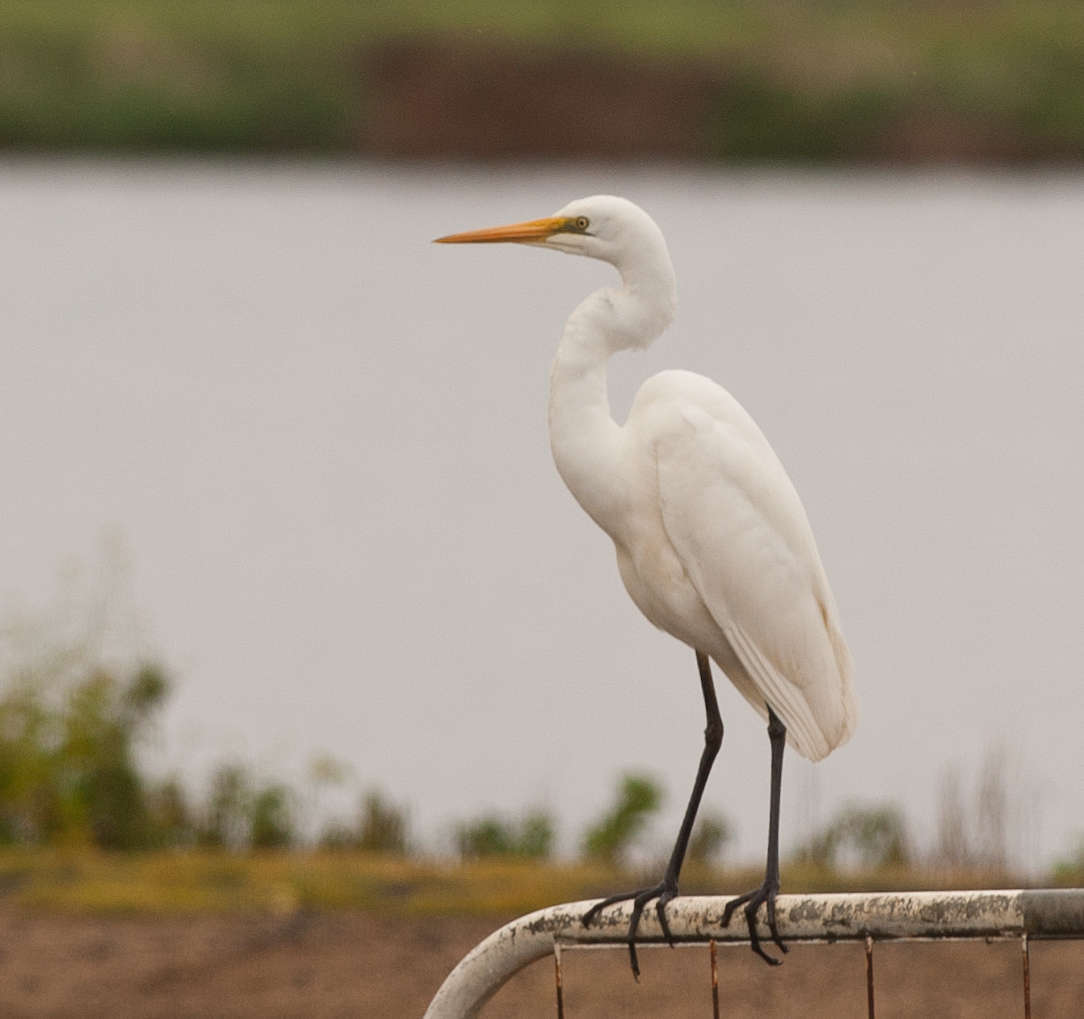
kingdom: Animalia
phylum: Chordata
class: Aves
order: Pelecaniformes
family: Ardeidae
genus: Ardea
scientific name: Ardea modesta
